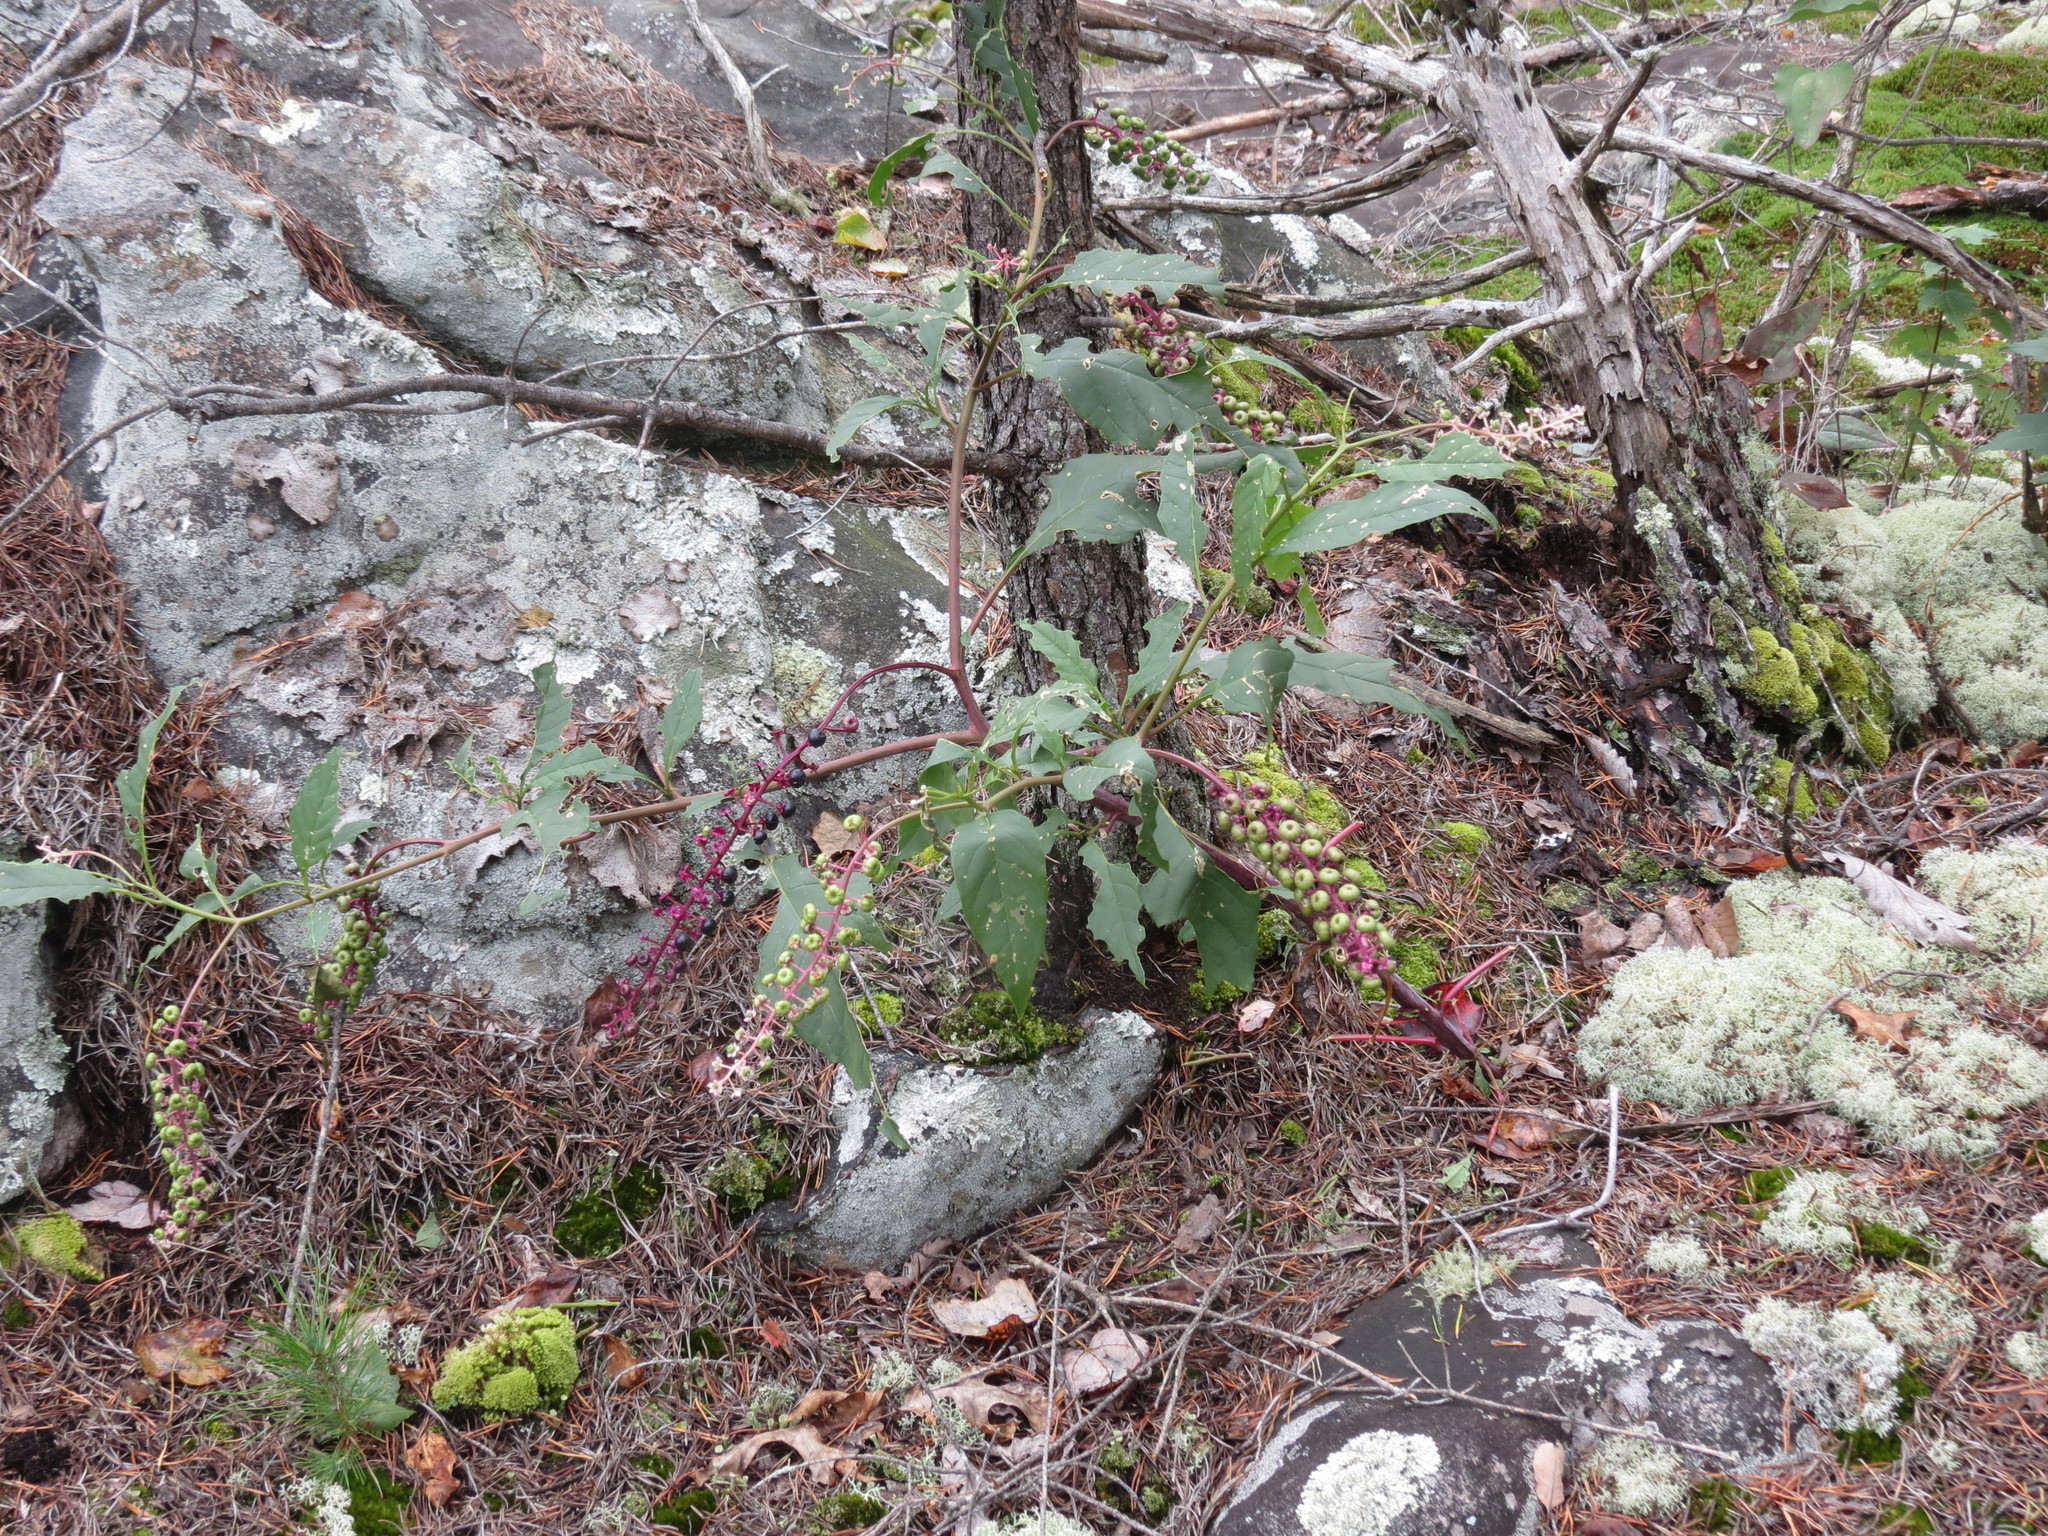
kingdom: Plantae
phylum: Tracheophyta
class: Magnoliopsida
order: Caryophyllales
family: Phytolaccaceae
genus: Phytolacca
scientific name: Phytolacca americana
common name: American pokeweed
